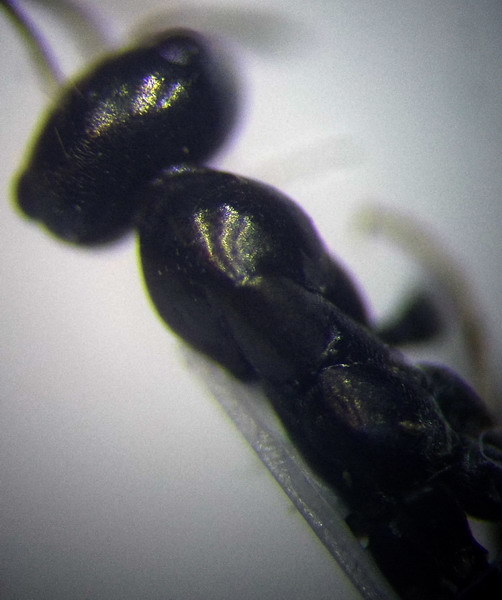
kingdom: Animalia
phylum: Arthropoda
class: Insecta
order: Hymenoptera
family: Formicidae
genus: Cataglyphis
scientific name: Cataglyphis aenescens
